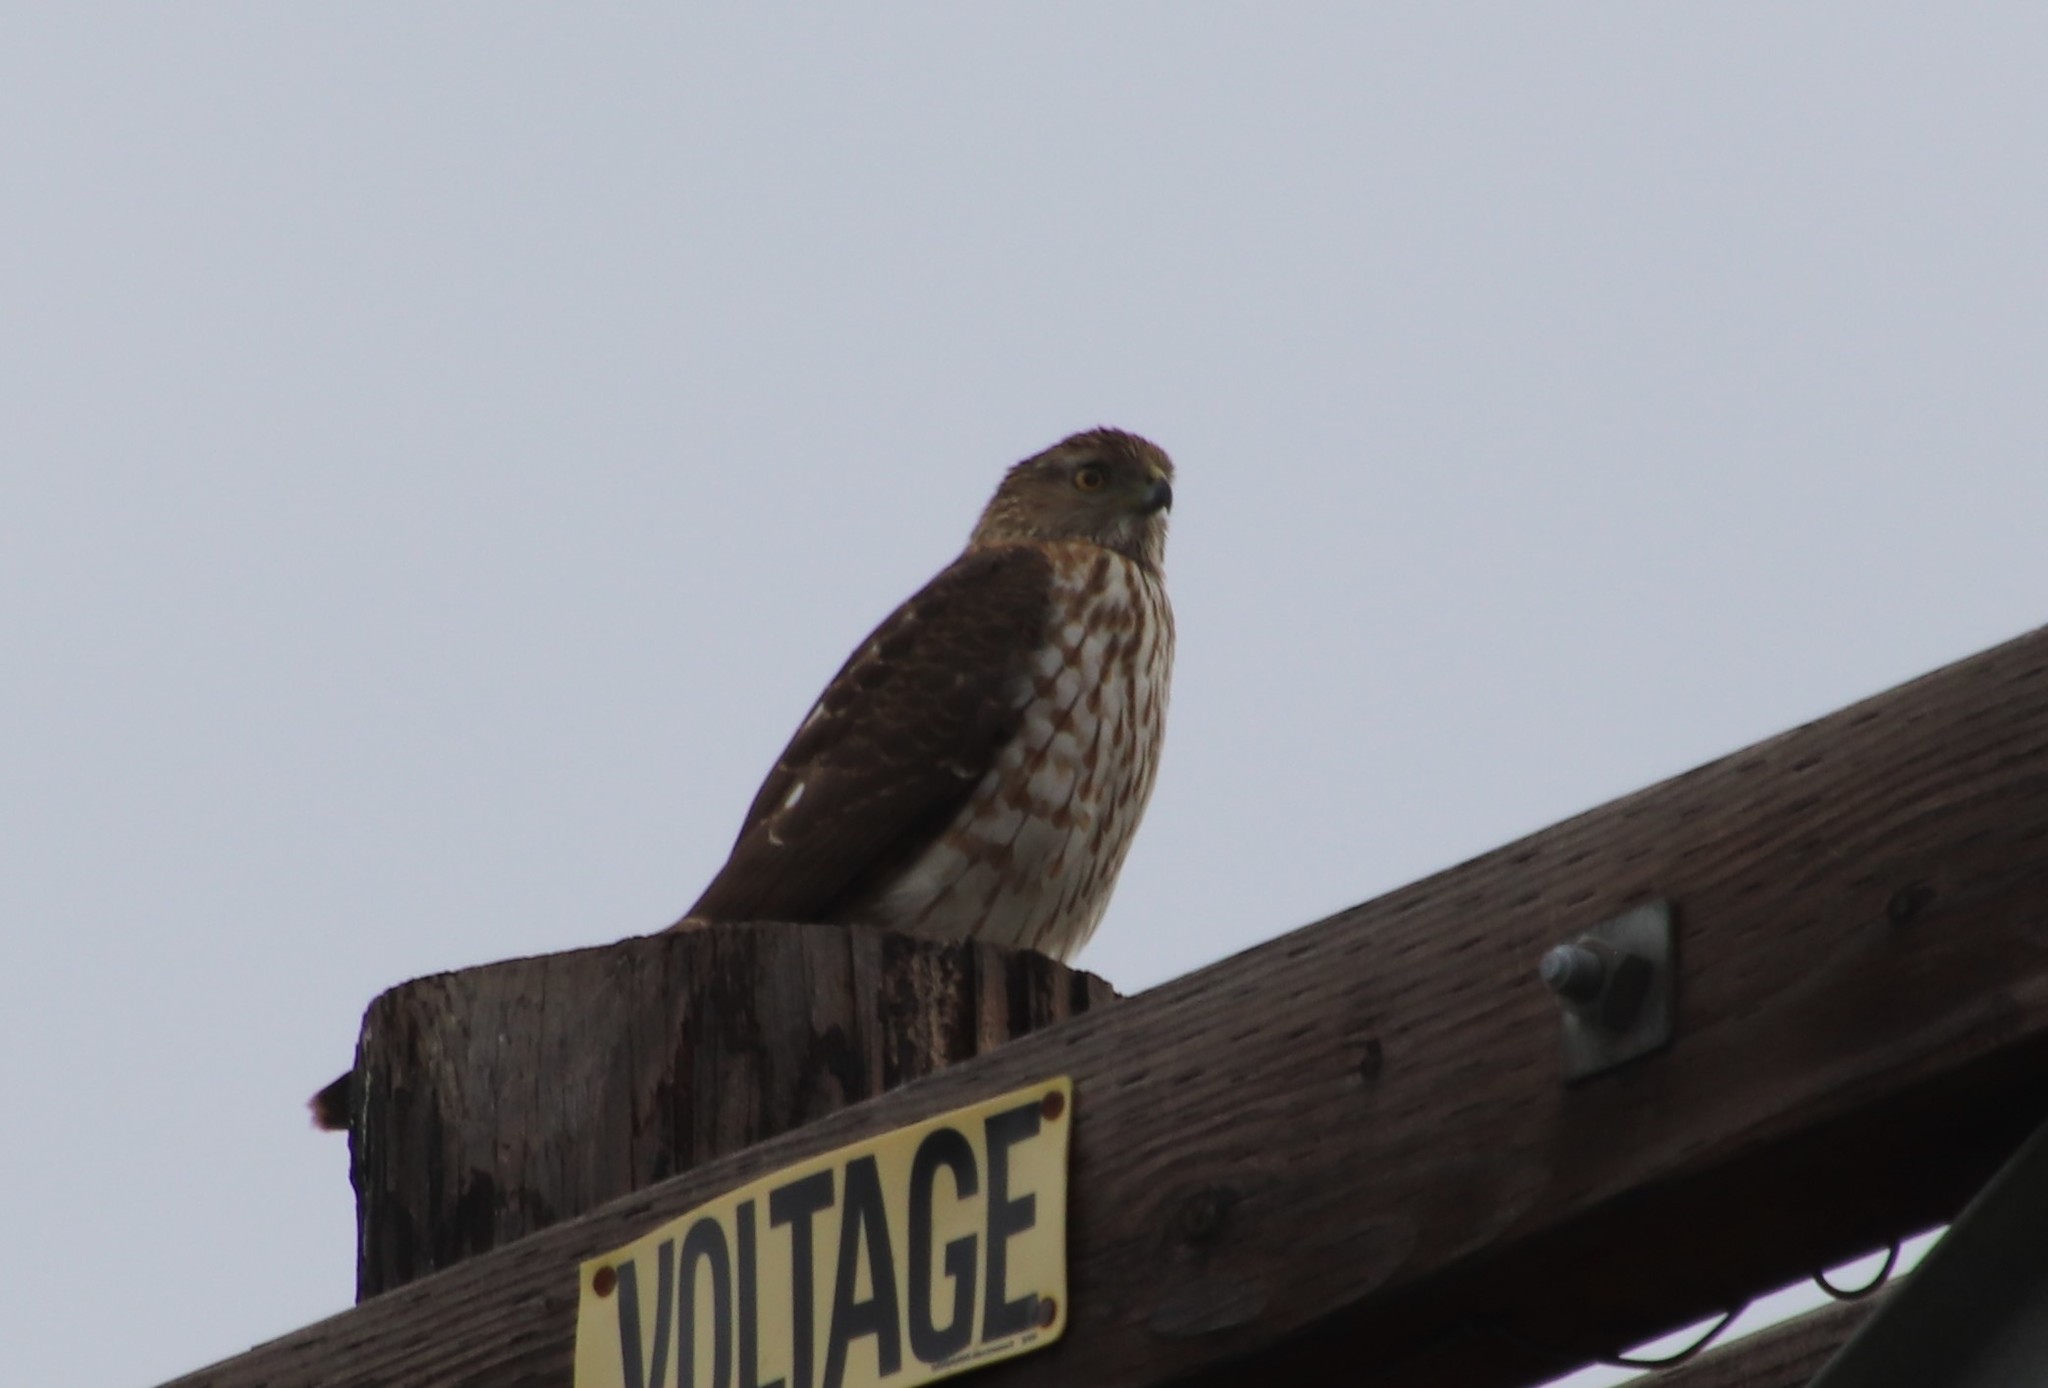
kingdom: Animalia
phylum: Chordata
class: Aves
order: Accipitriformes
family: Accipitridae
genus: Accipiter
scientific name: Accipiter cooperii
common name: Cooper's hawk
